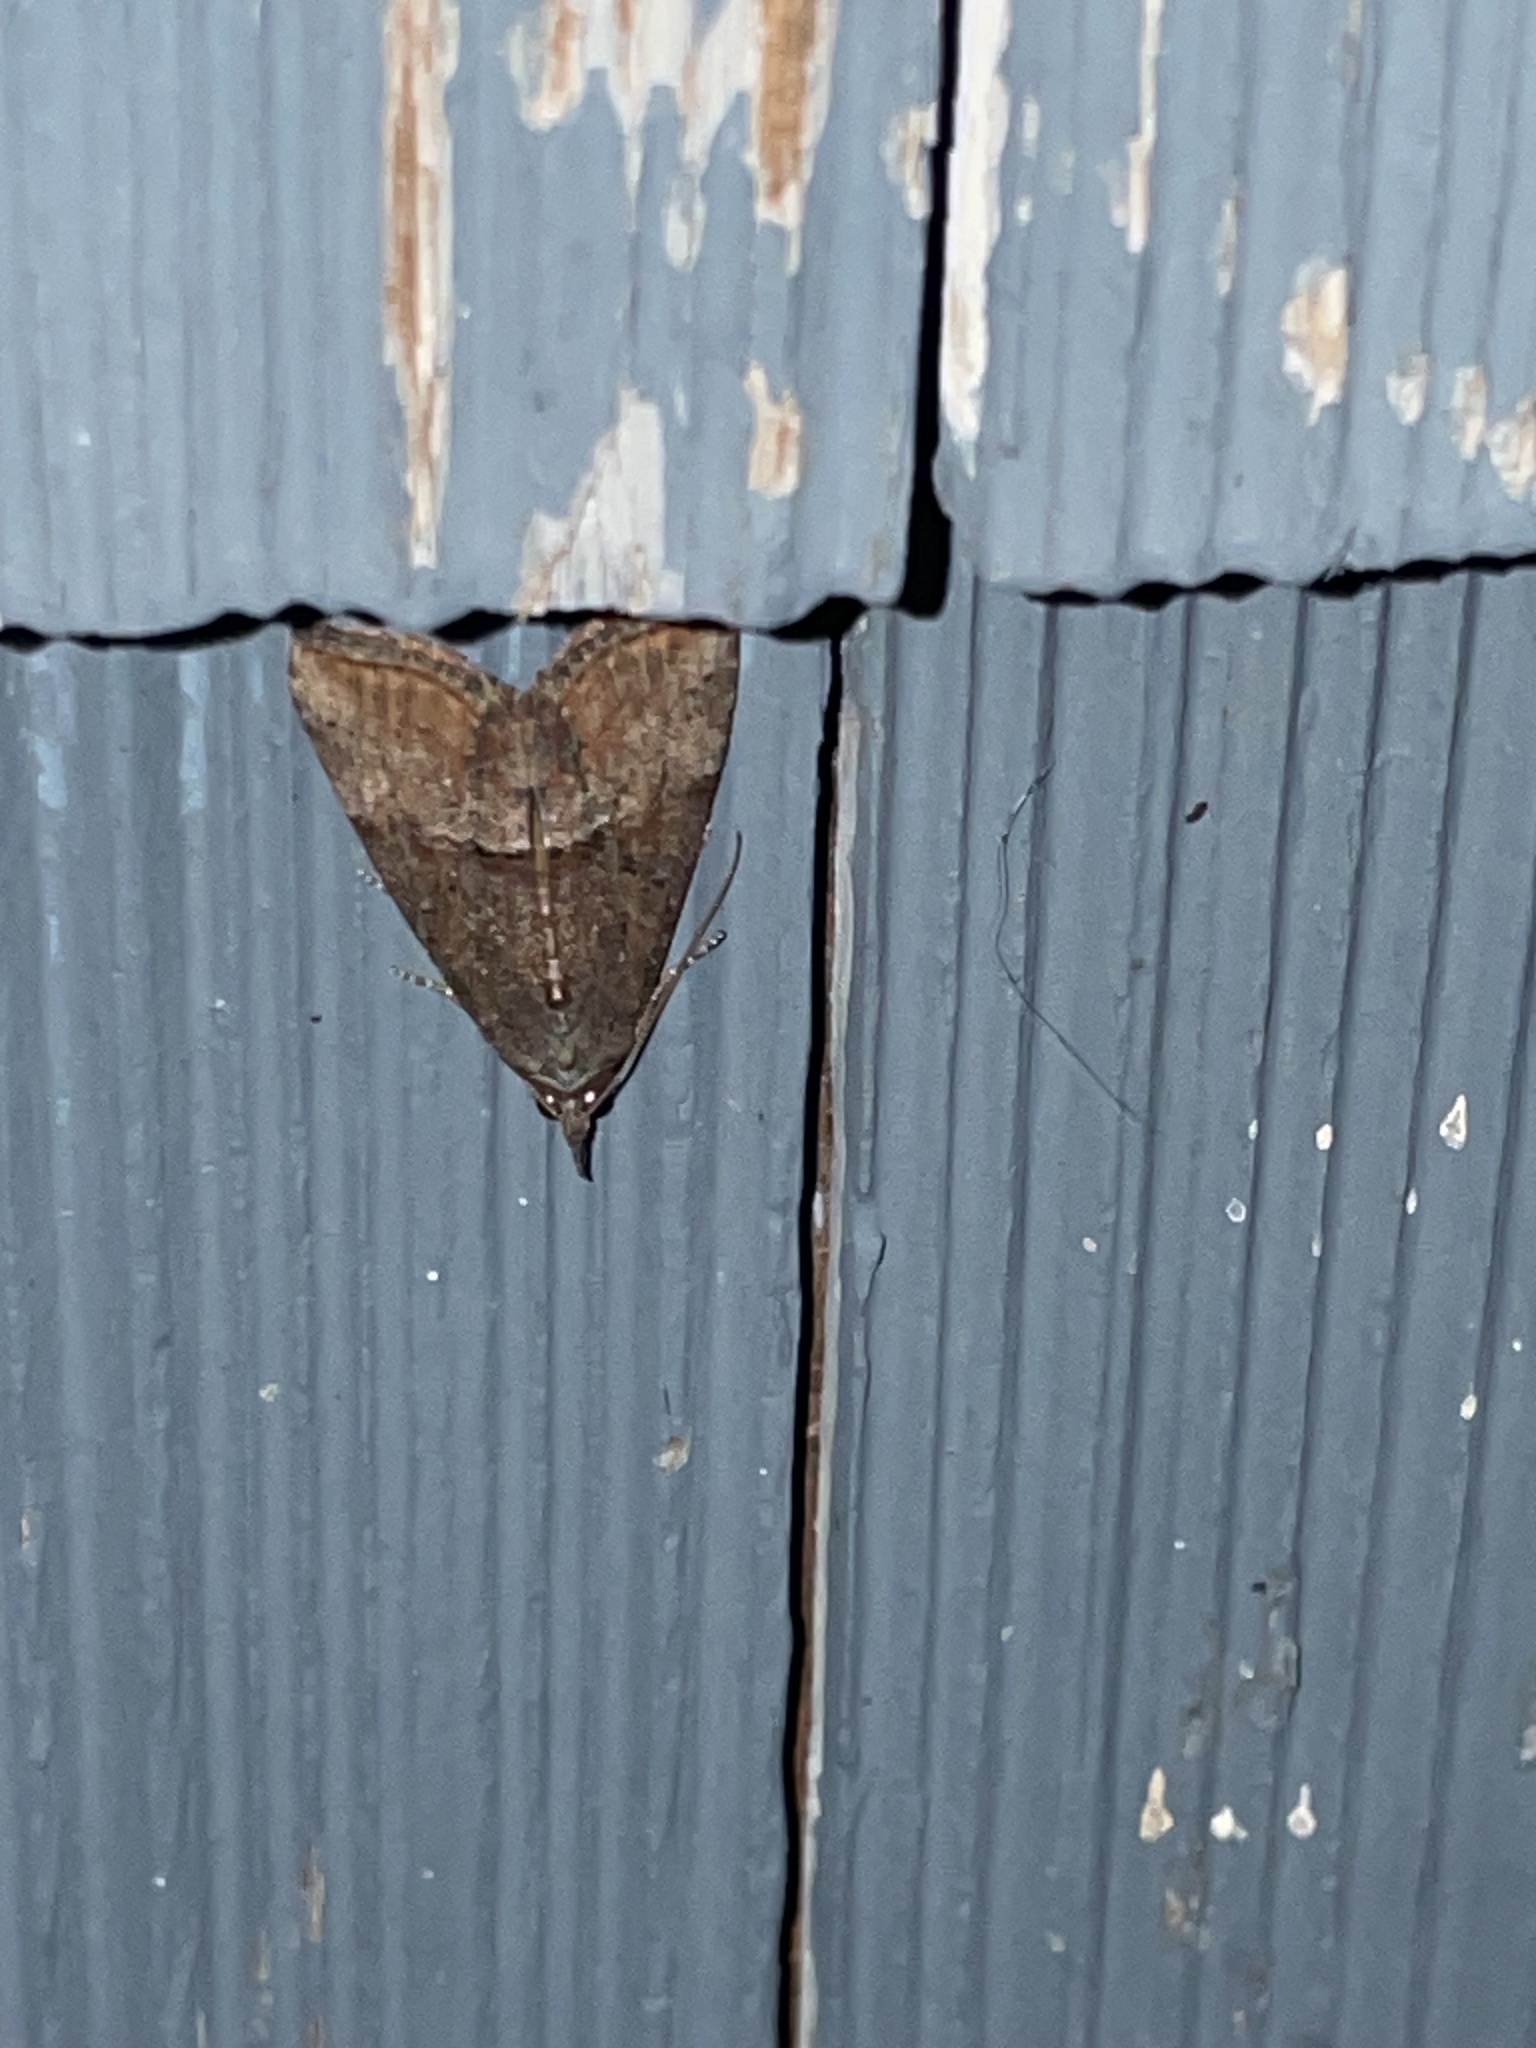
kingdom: Animalia
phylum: Arthropoda
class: Insecta
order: Lepidoptera
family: Erebidae
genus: Hypena
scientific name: Hypena scabra
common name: Green cloverworm
